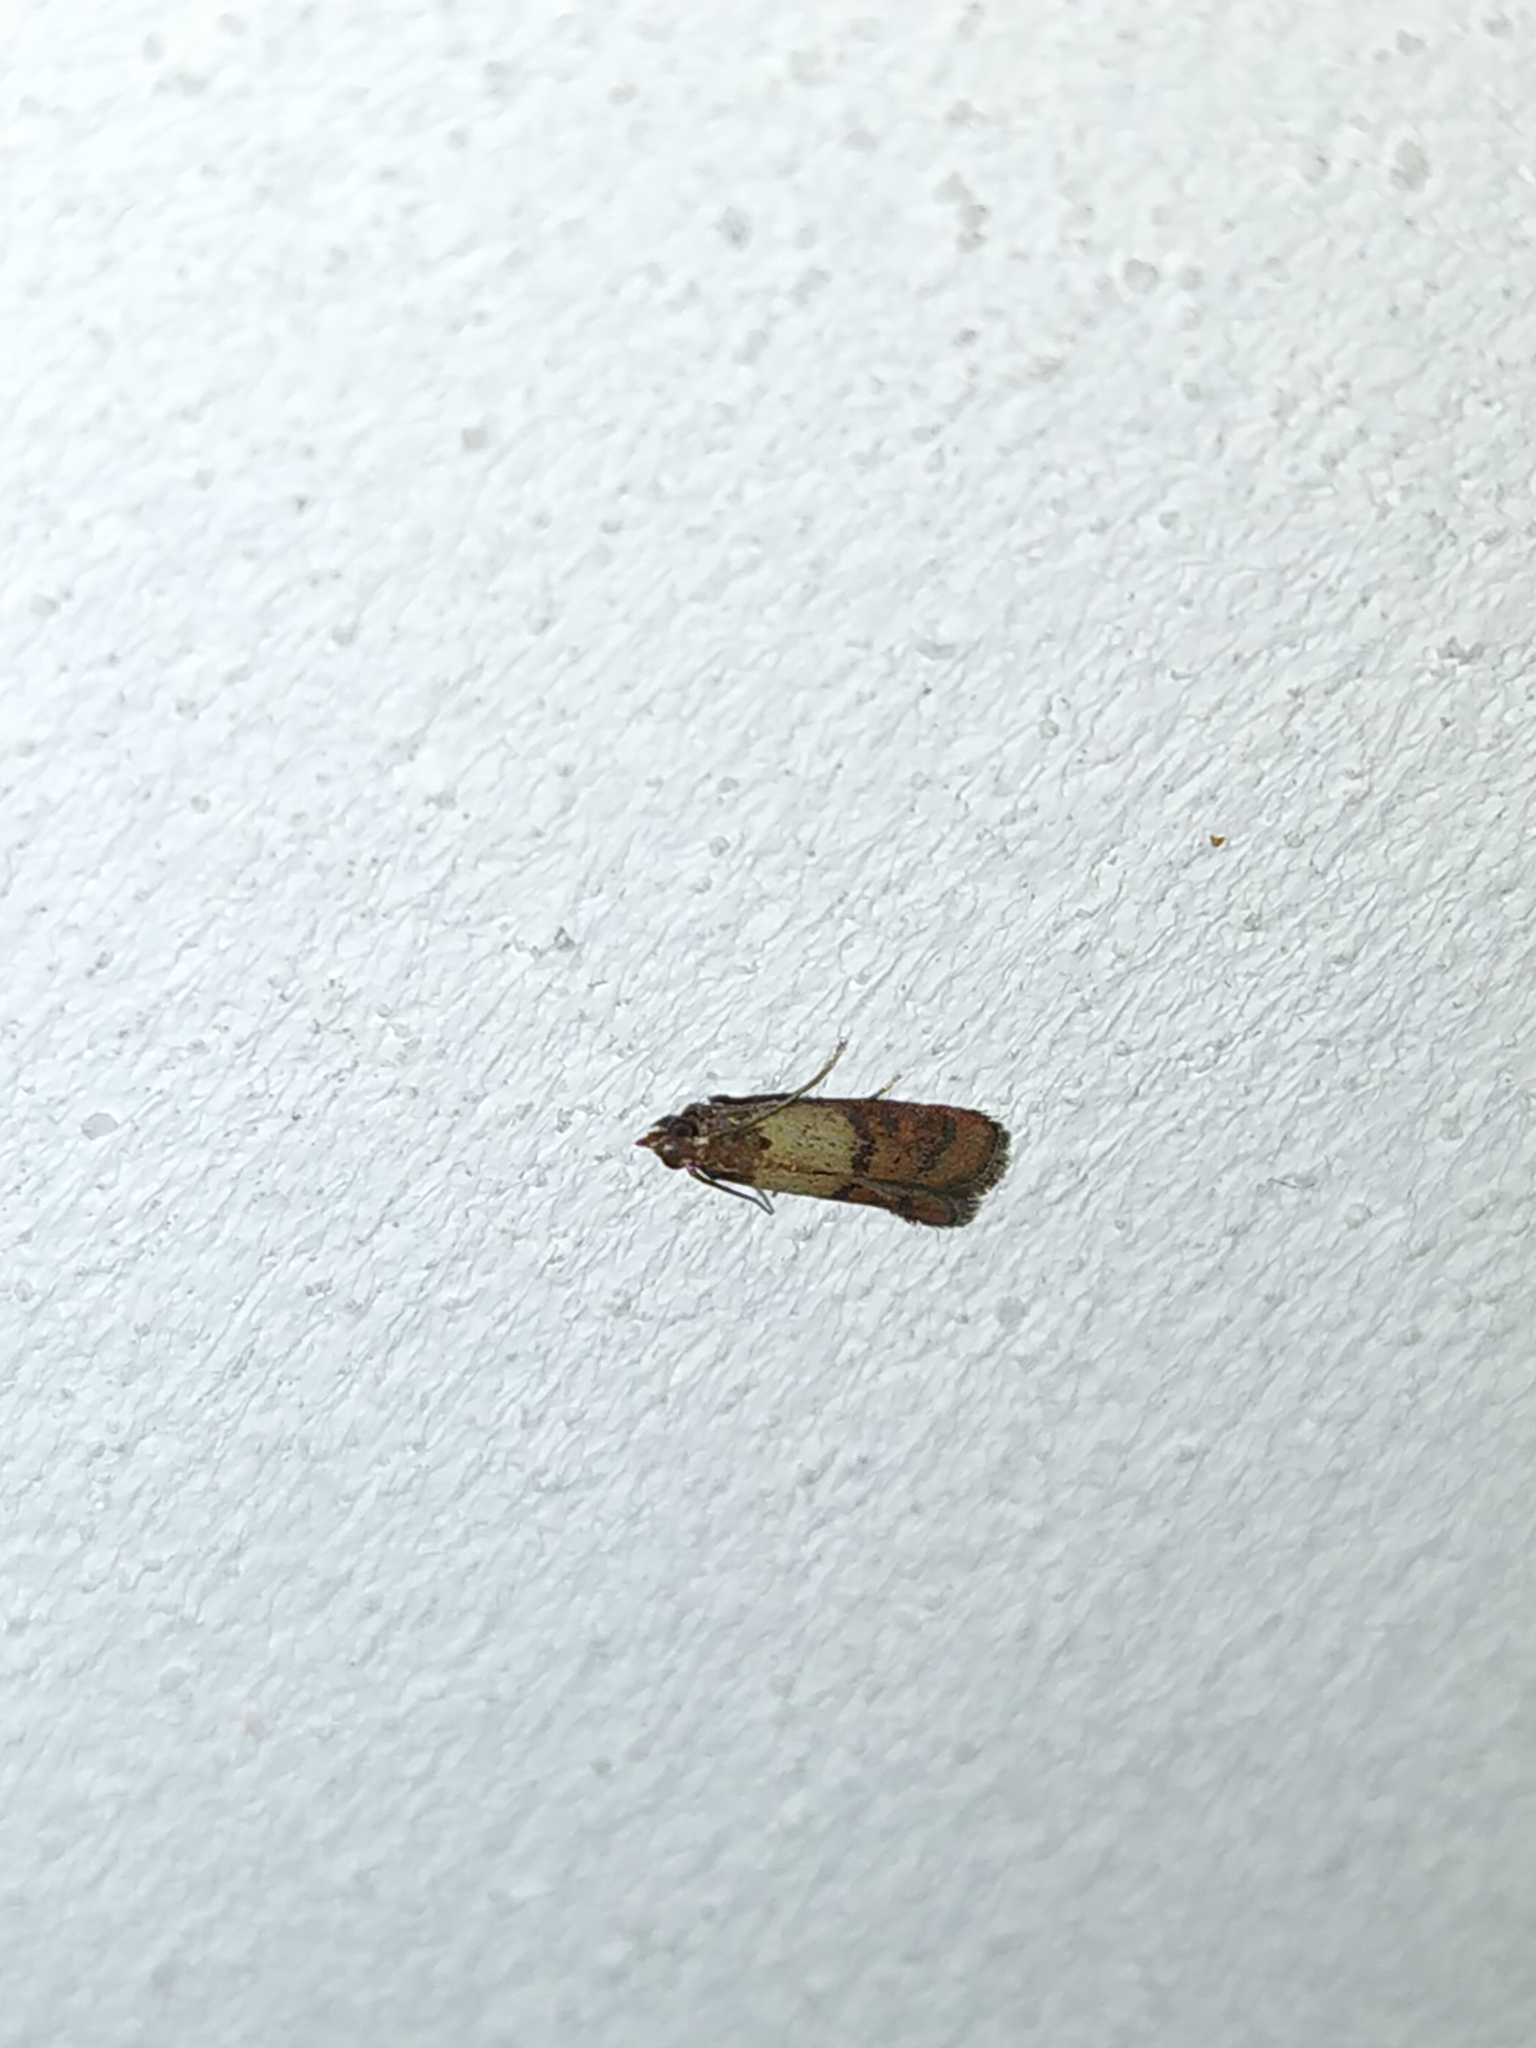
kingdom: Animalia
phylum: Arthropoda
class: Insecta
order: Lepidoptera
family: Pyralidae
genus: Plodia
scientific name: Plodia interpunctella
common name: Indian meal moth
